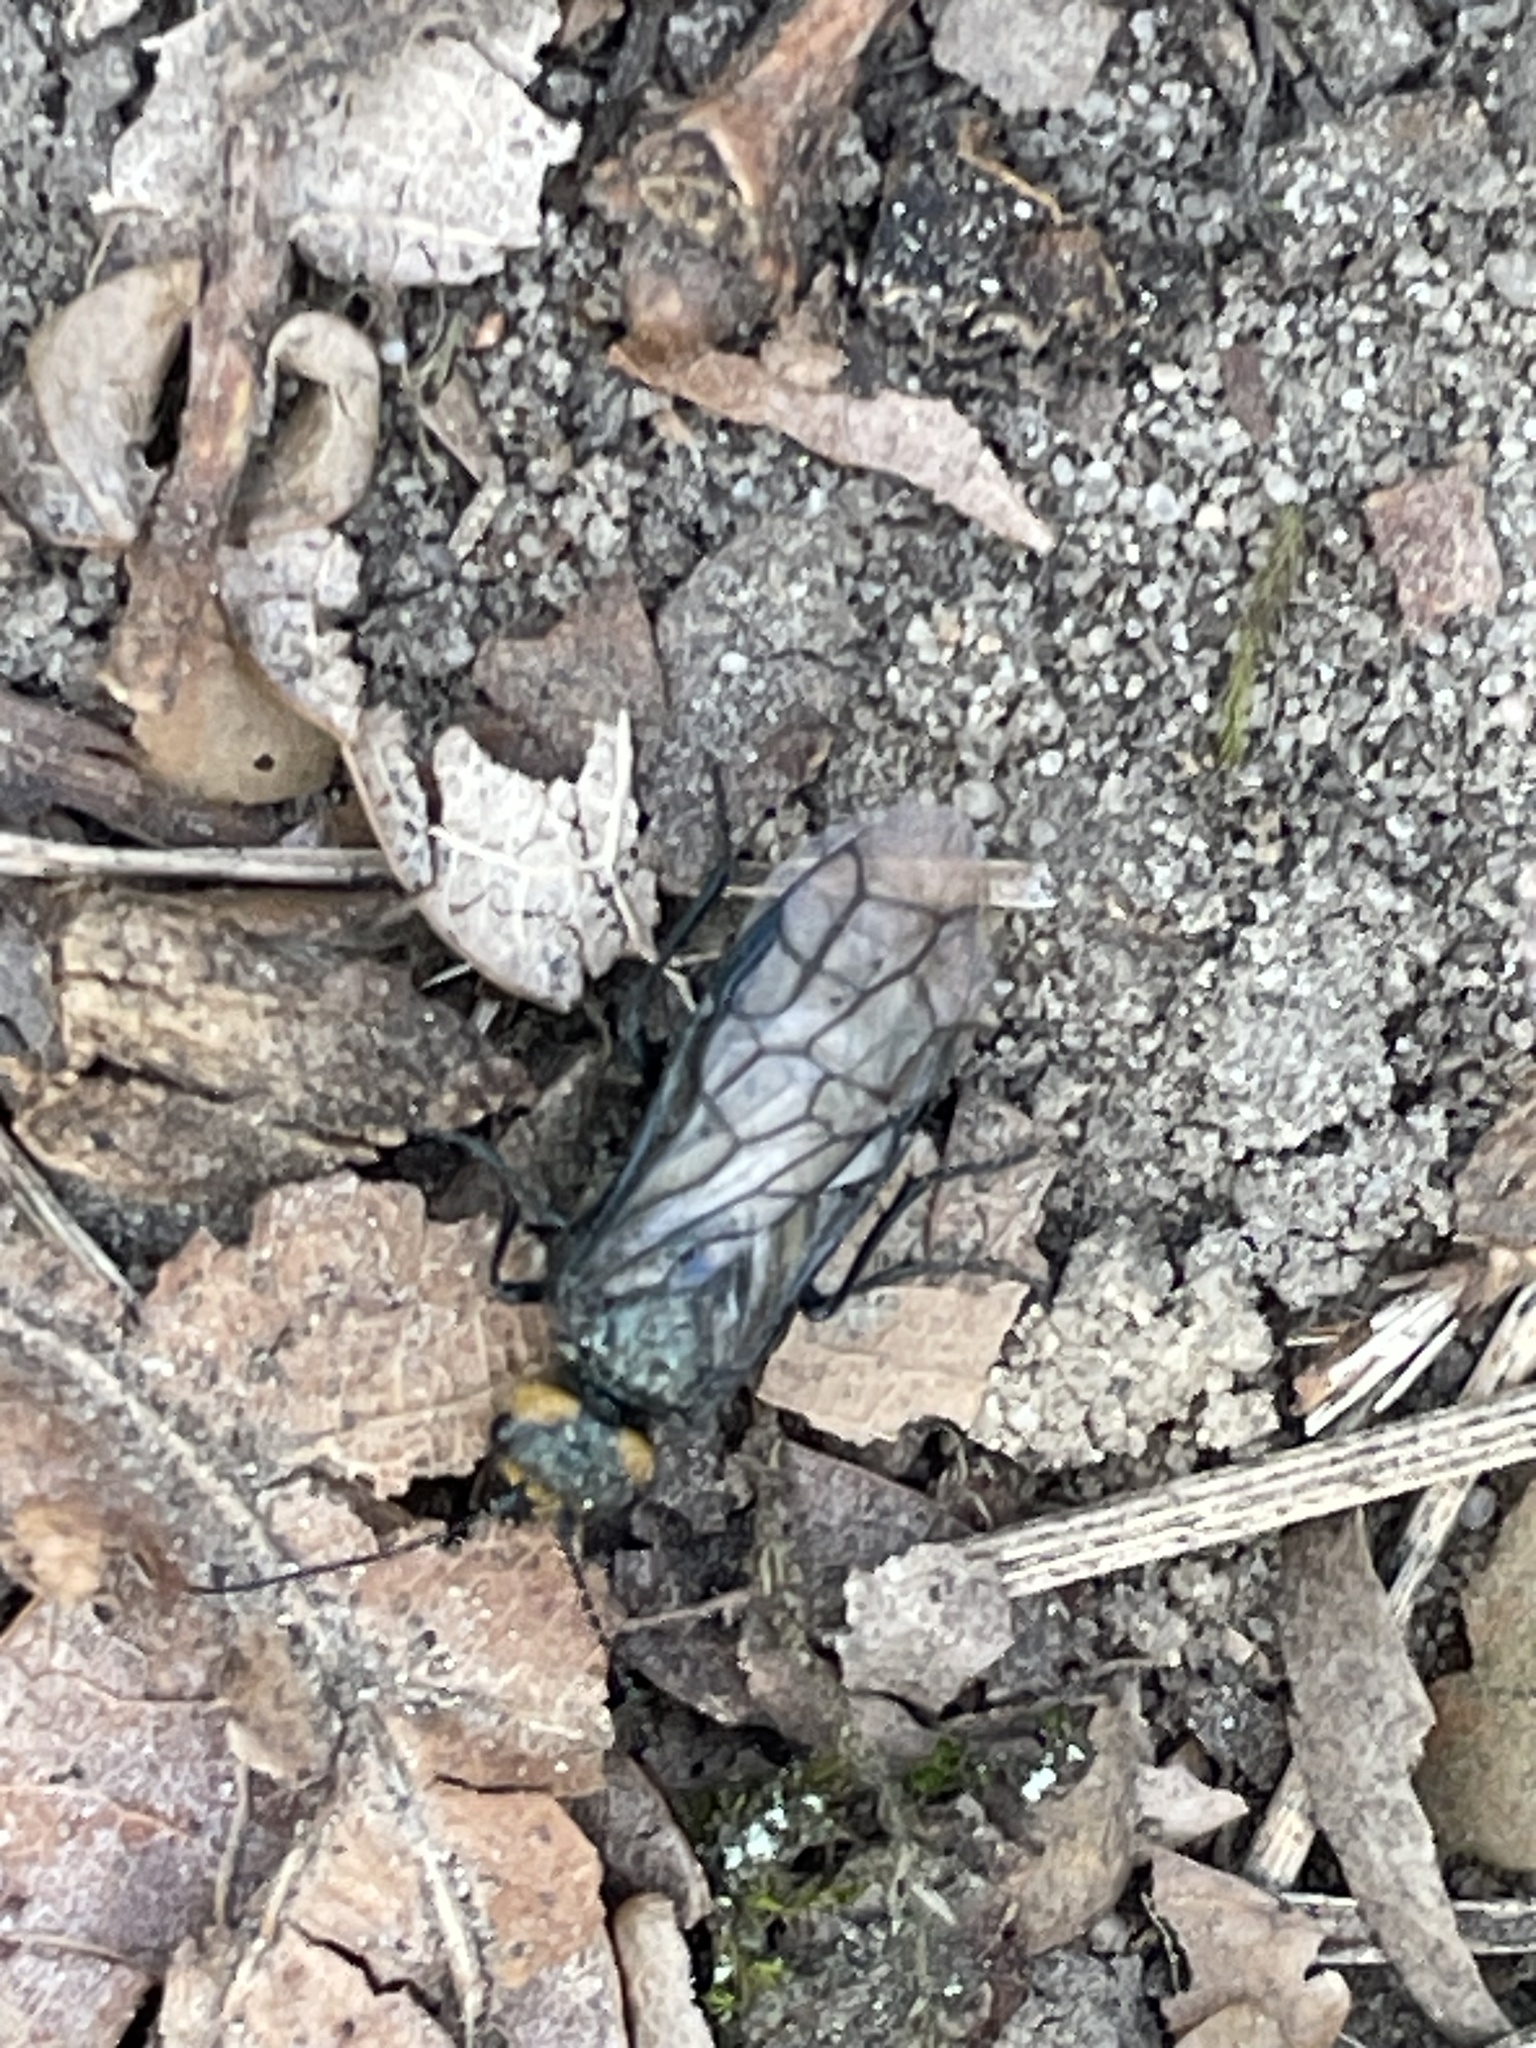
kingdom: Animalia
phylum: Arthropoda
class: Insecta
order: Hymenoptera
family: Pamphiliidae
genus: Acantholyda
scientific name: Acantholyda flaviceps
